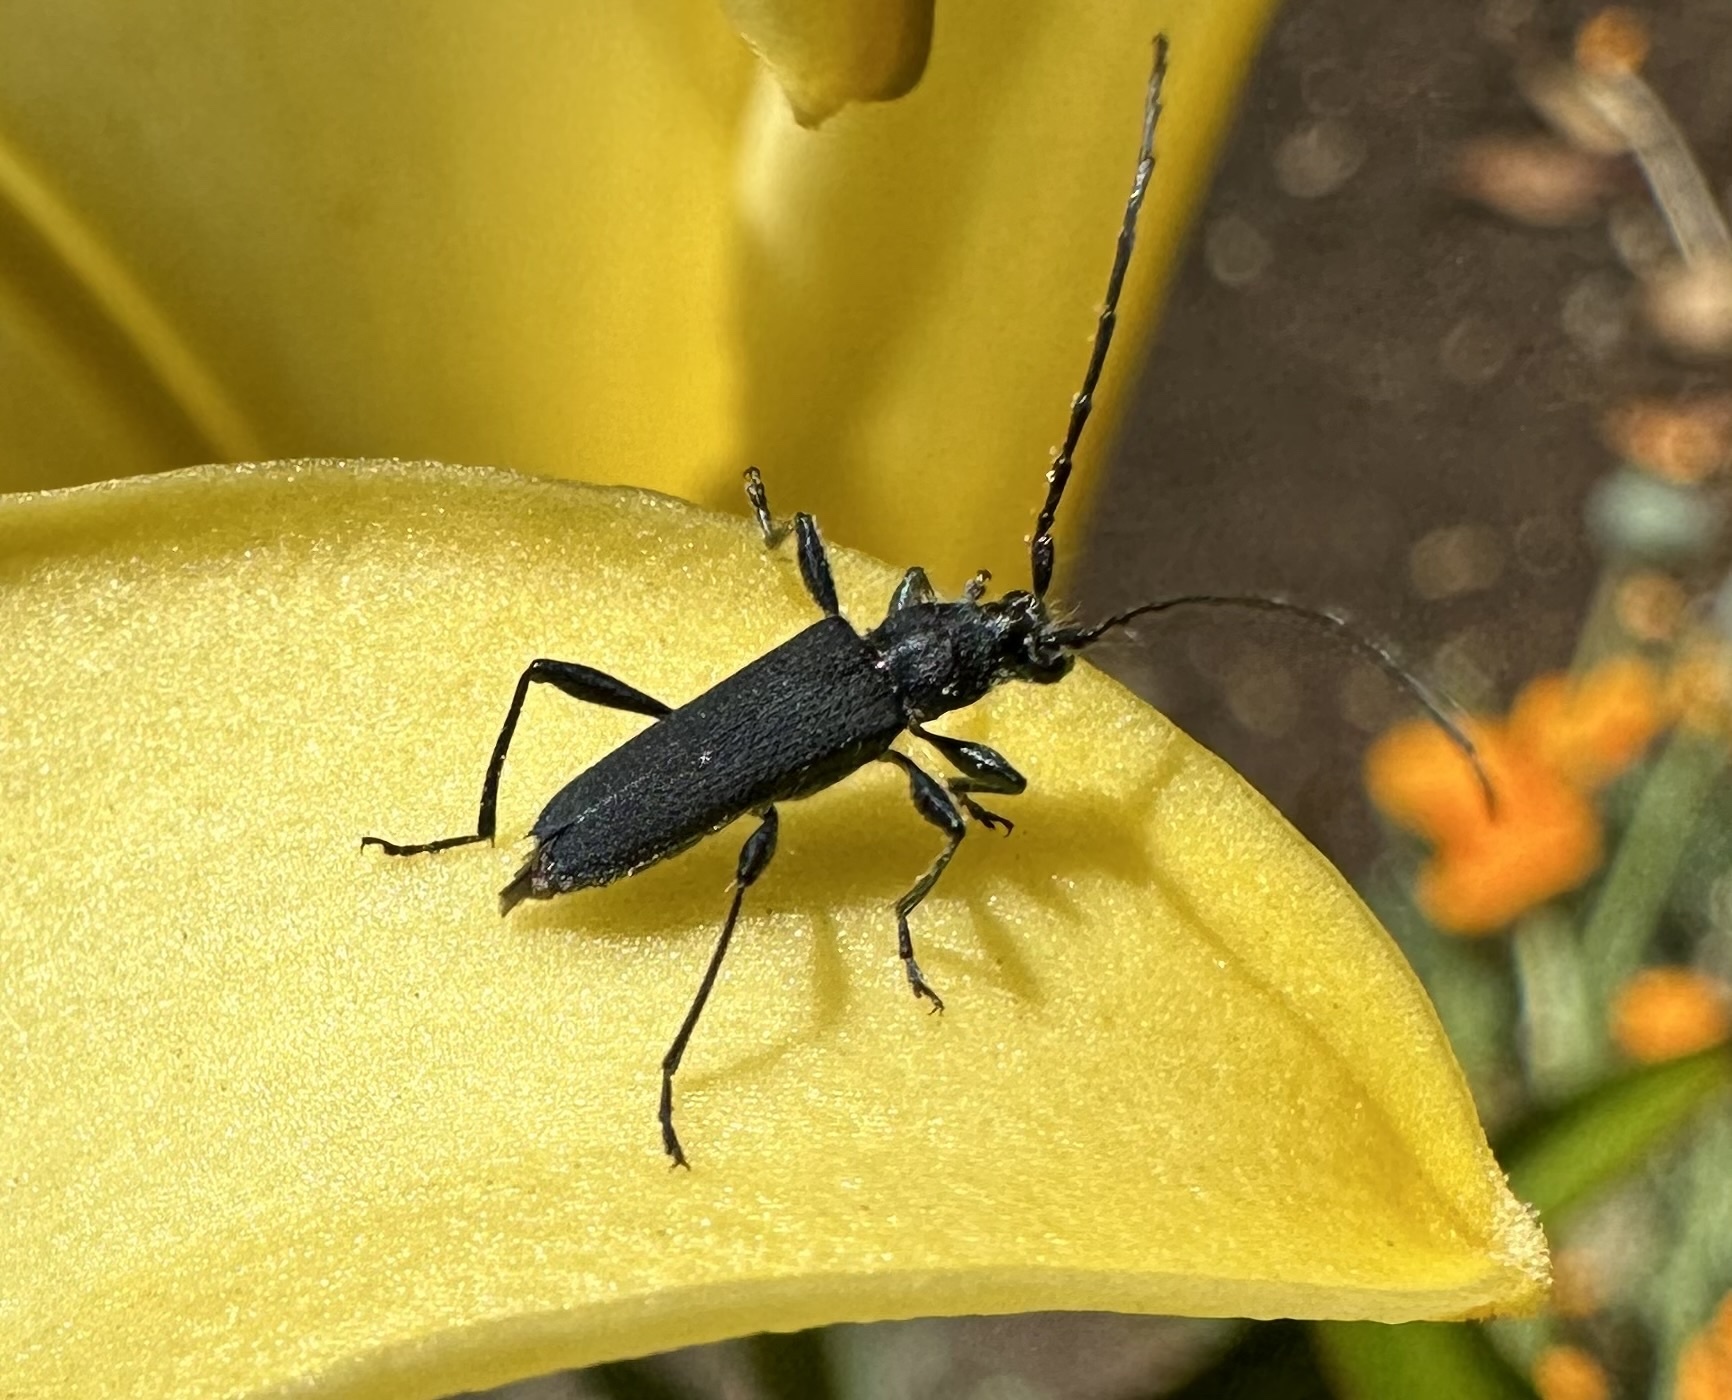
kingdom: Animalia
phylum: Arthropoda
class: Insecta
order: Coleoptera
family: Cerambycidae
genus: Eryphus
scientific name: Eryphus laetus
